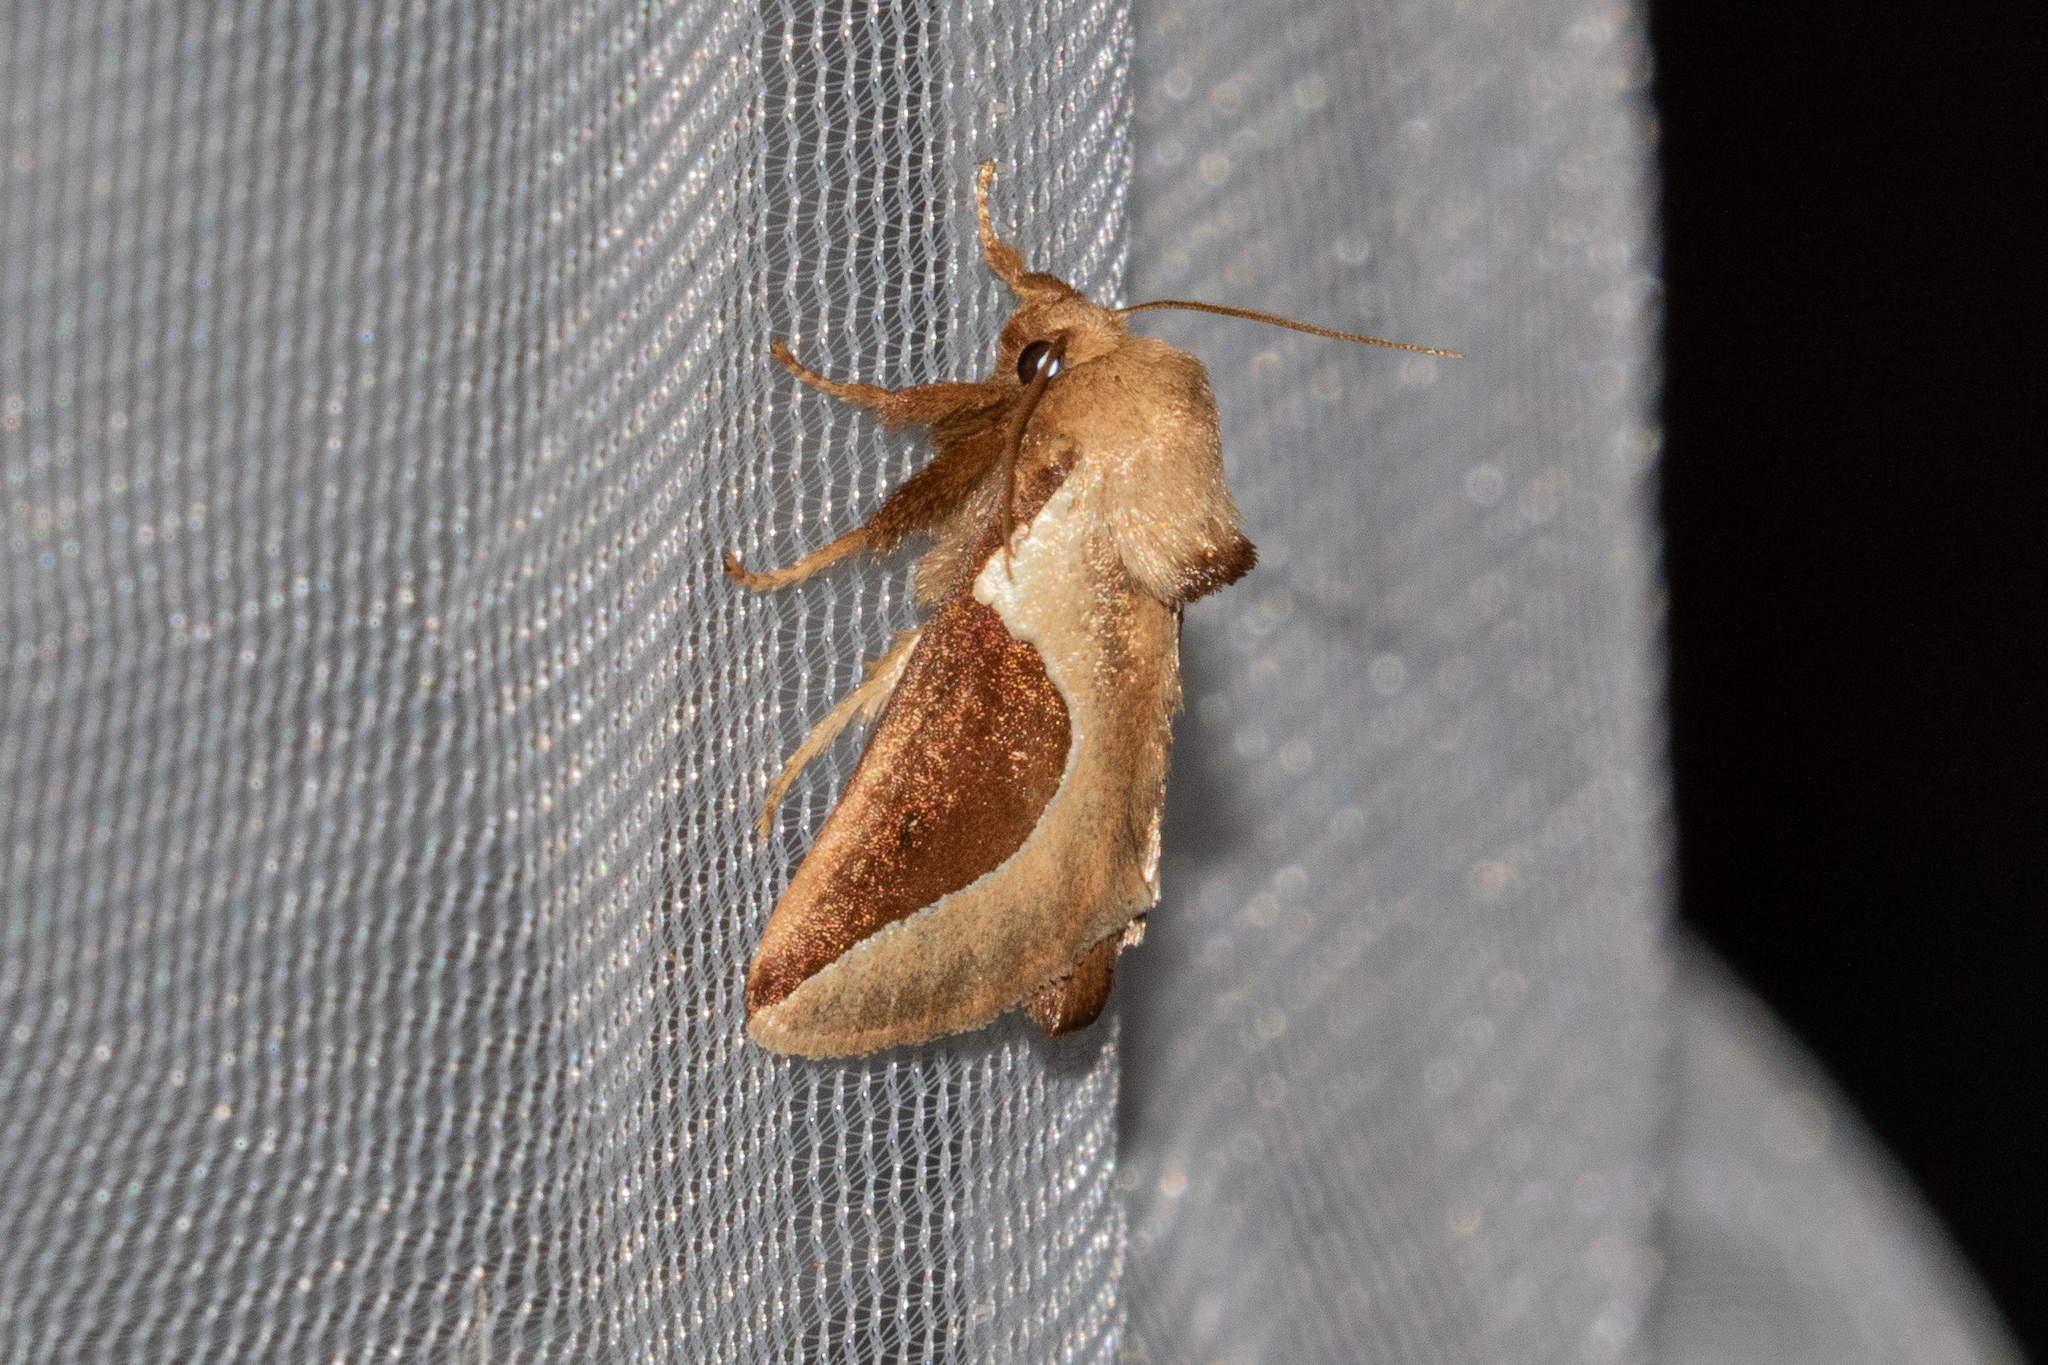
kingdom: Animalia
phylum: Arthropoda
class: Insecta
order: Lepidoptera
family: Limacodidae
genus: Prolimacodes
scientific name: Prolimacodes badia
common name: Skiff moth
